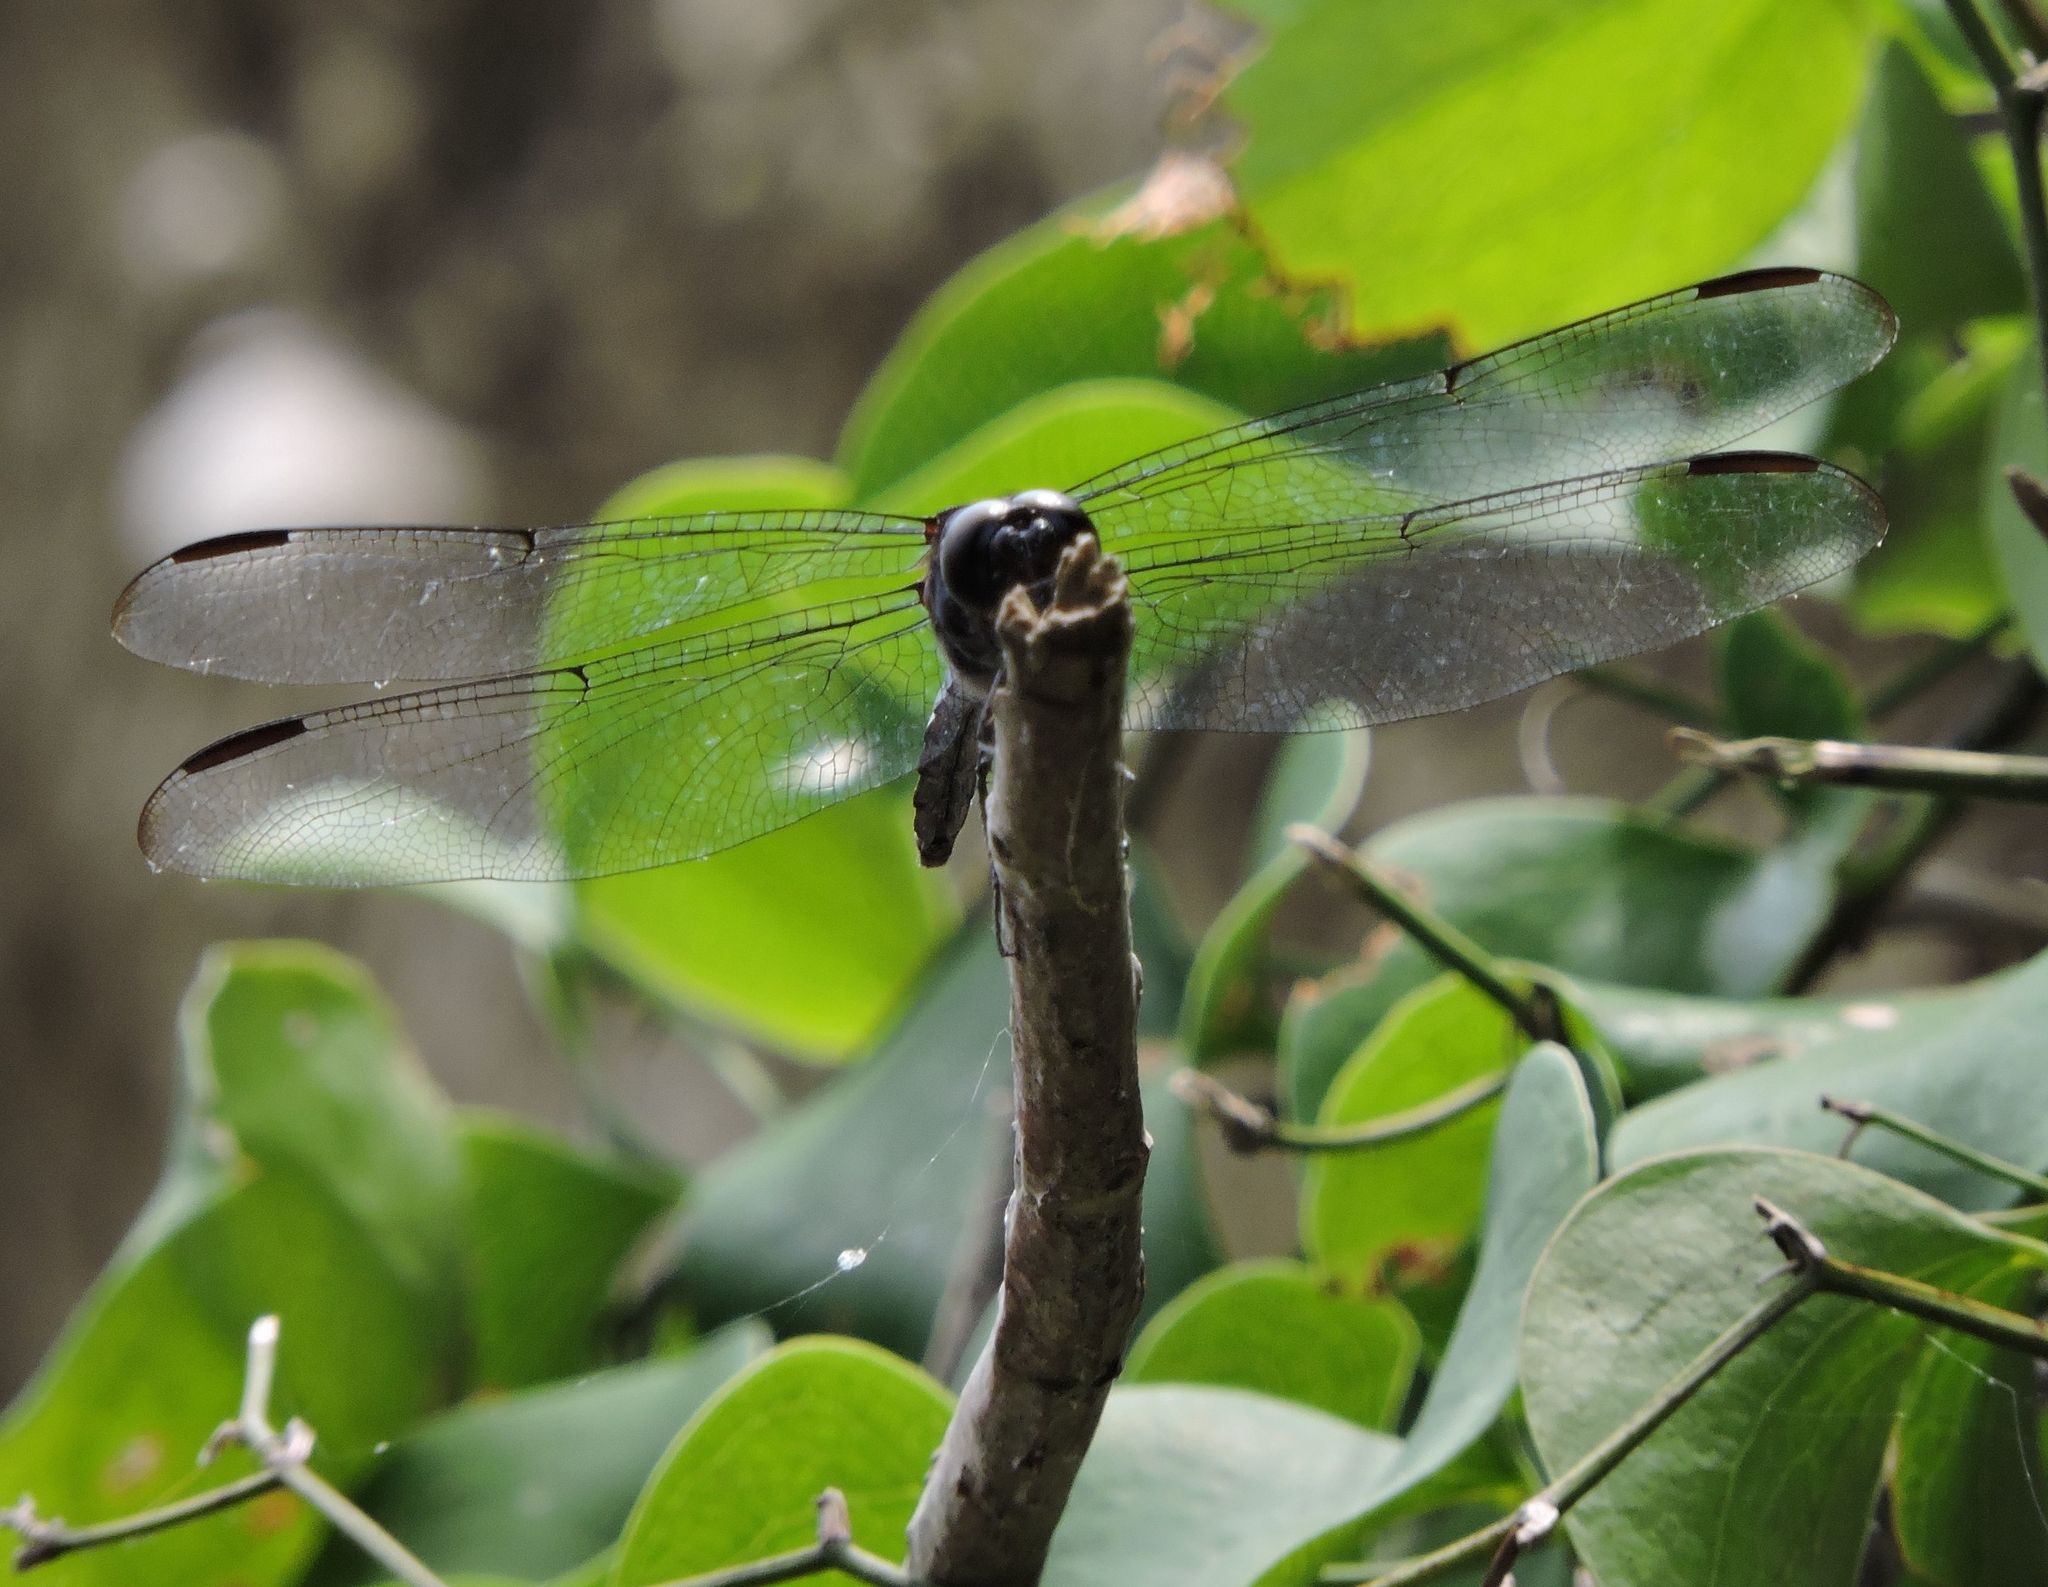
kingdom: Animalia
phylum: Arthropoda
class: Insecta
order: Odonata
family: Libellulidae
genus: Libellula
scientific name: Libellula incesta
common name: Slaty skimmer
